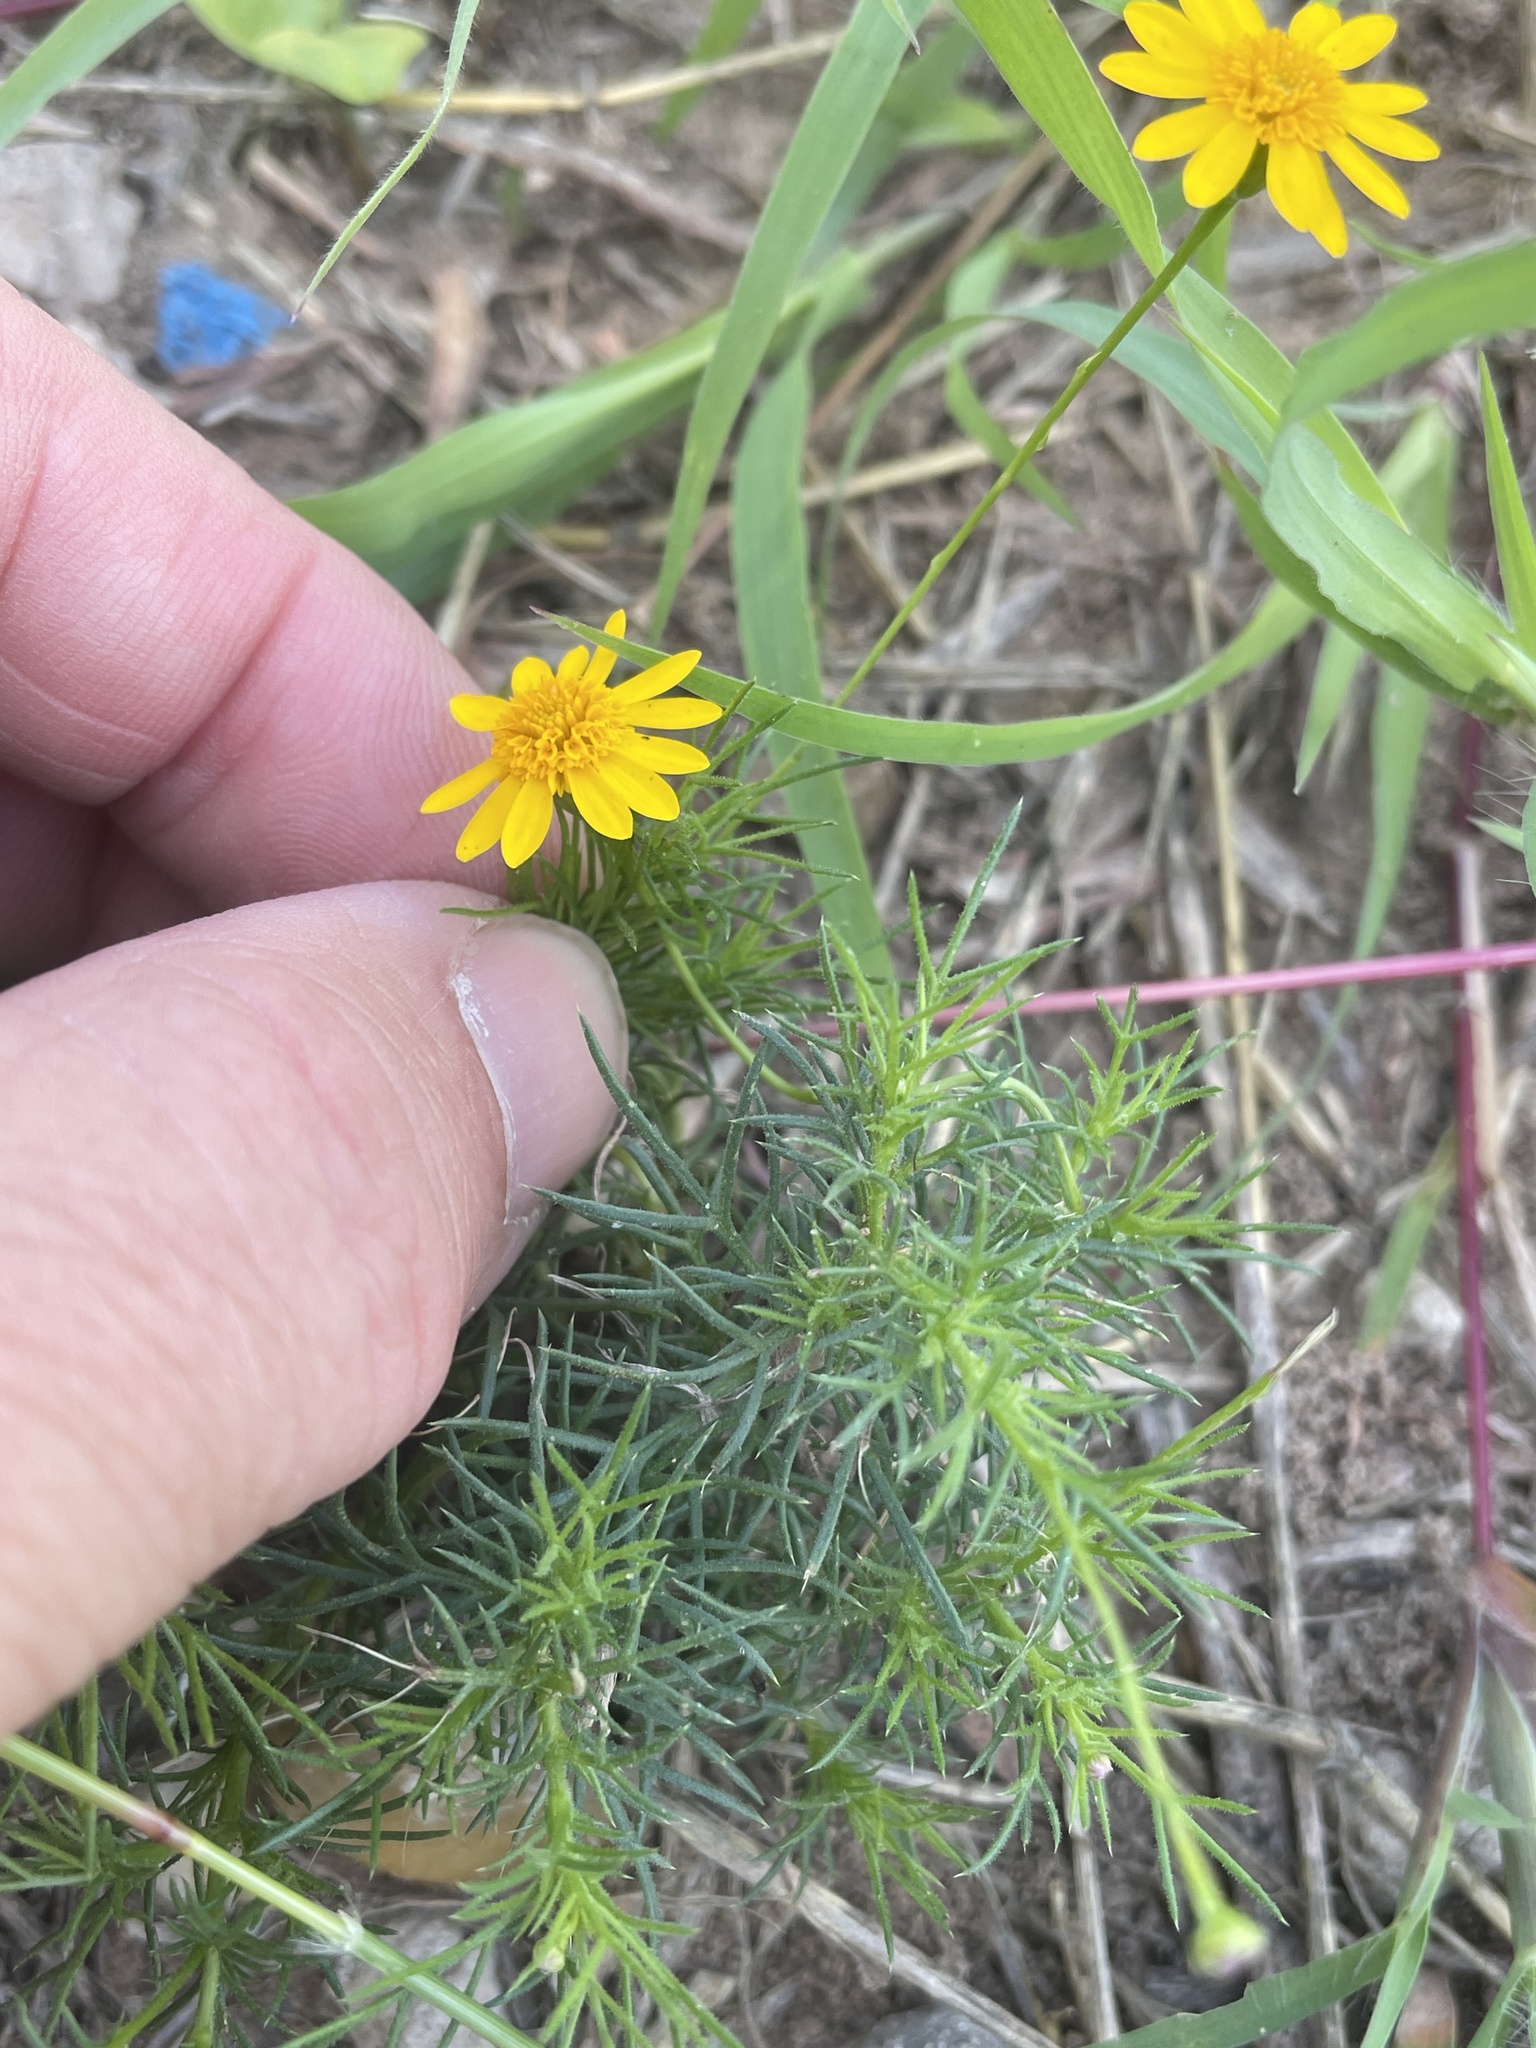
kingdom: Plantae
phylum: Tracheophyta
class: Magnoliopsida
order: Asterales
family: Asteraceae
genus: Thymophylla
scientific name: Thymophylla tenuiloba
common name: Dahlberg's daisy
